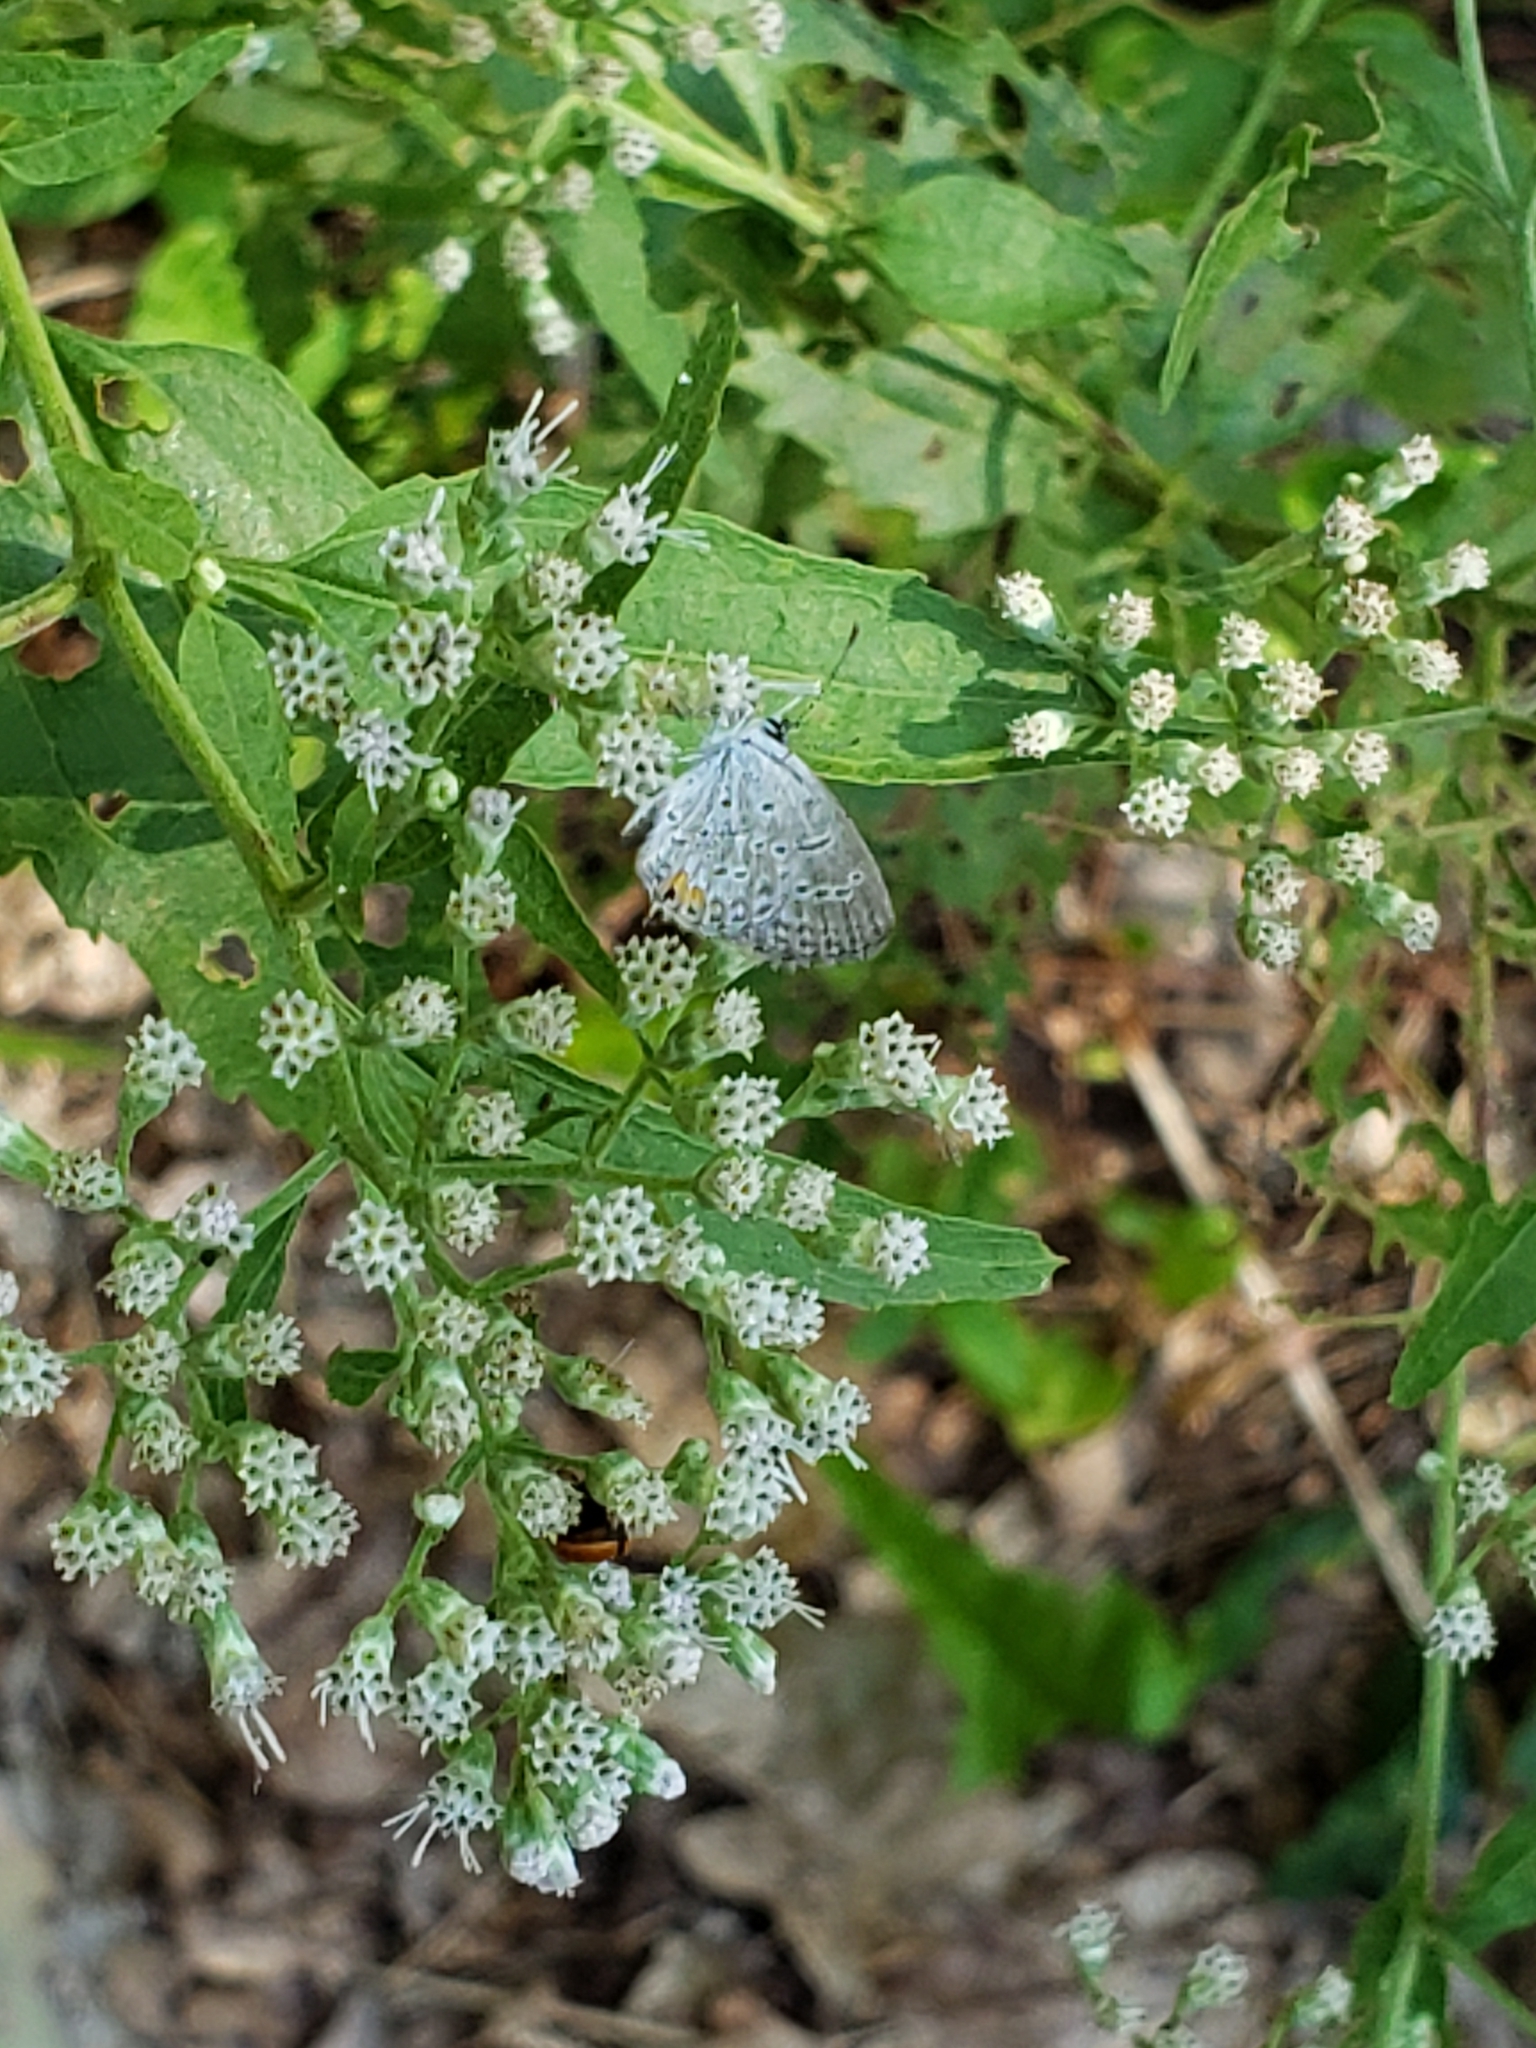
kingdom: Animalia
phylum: Arthropoda
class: Insecta
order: Lepidoptera
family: Lycaenidae
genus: Elkalyce
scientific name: Elkalyce comyntas
